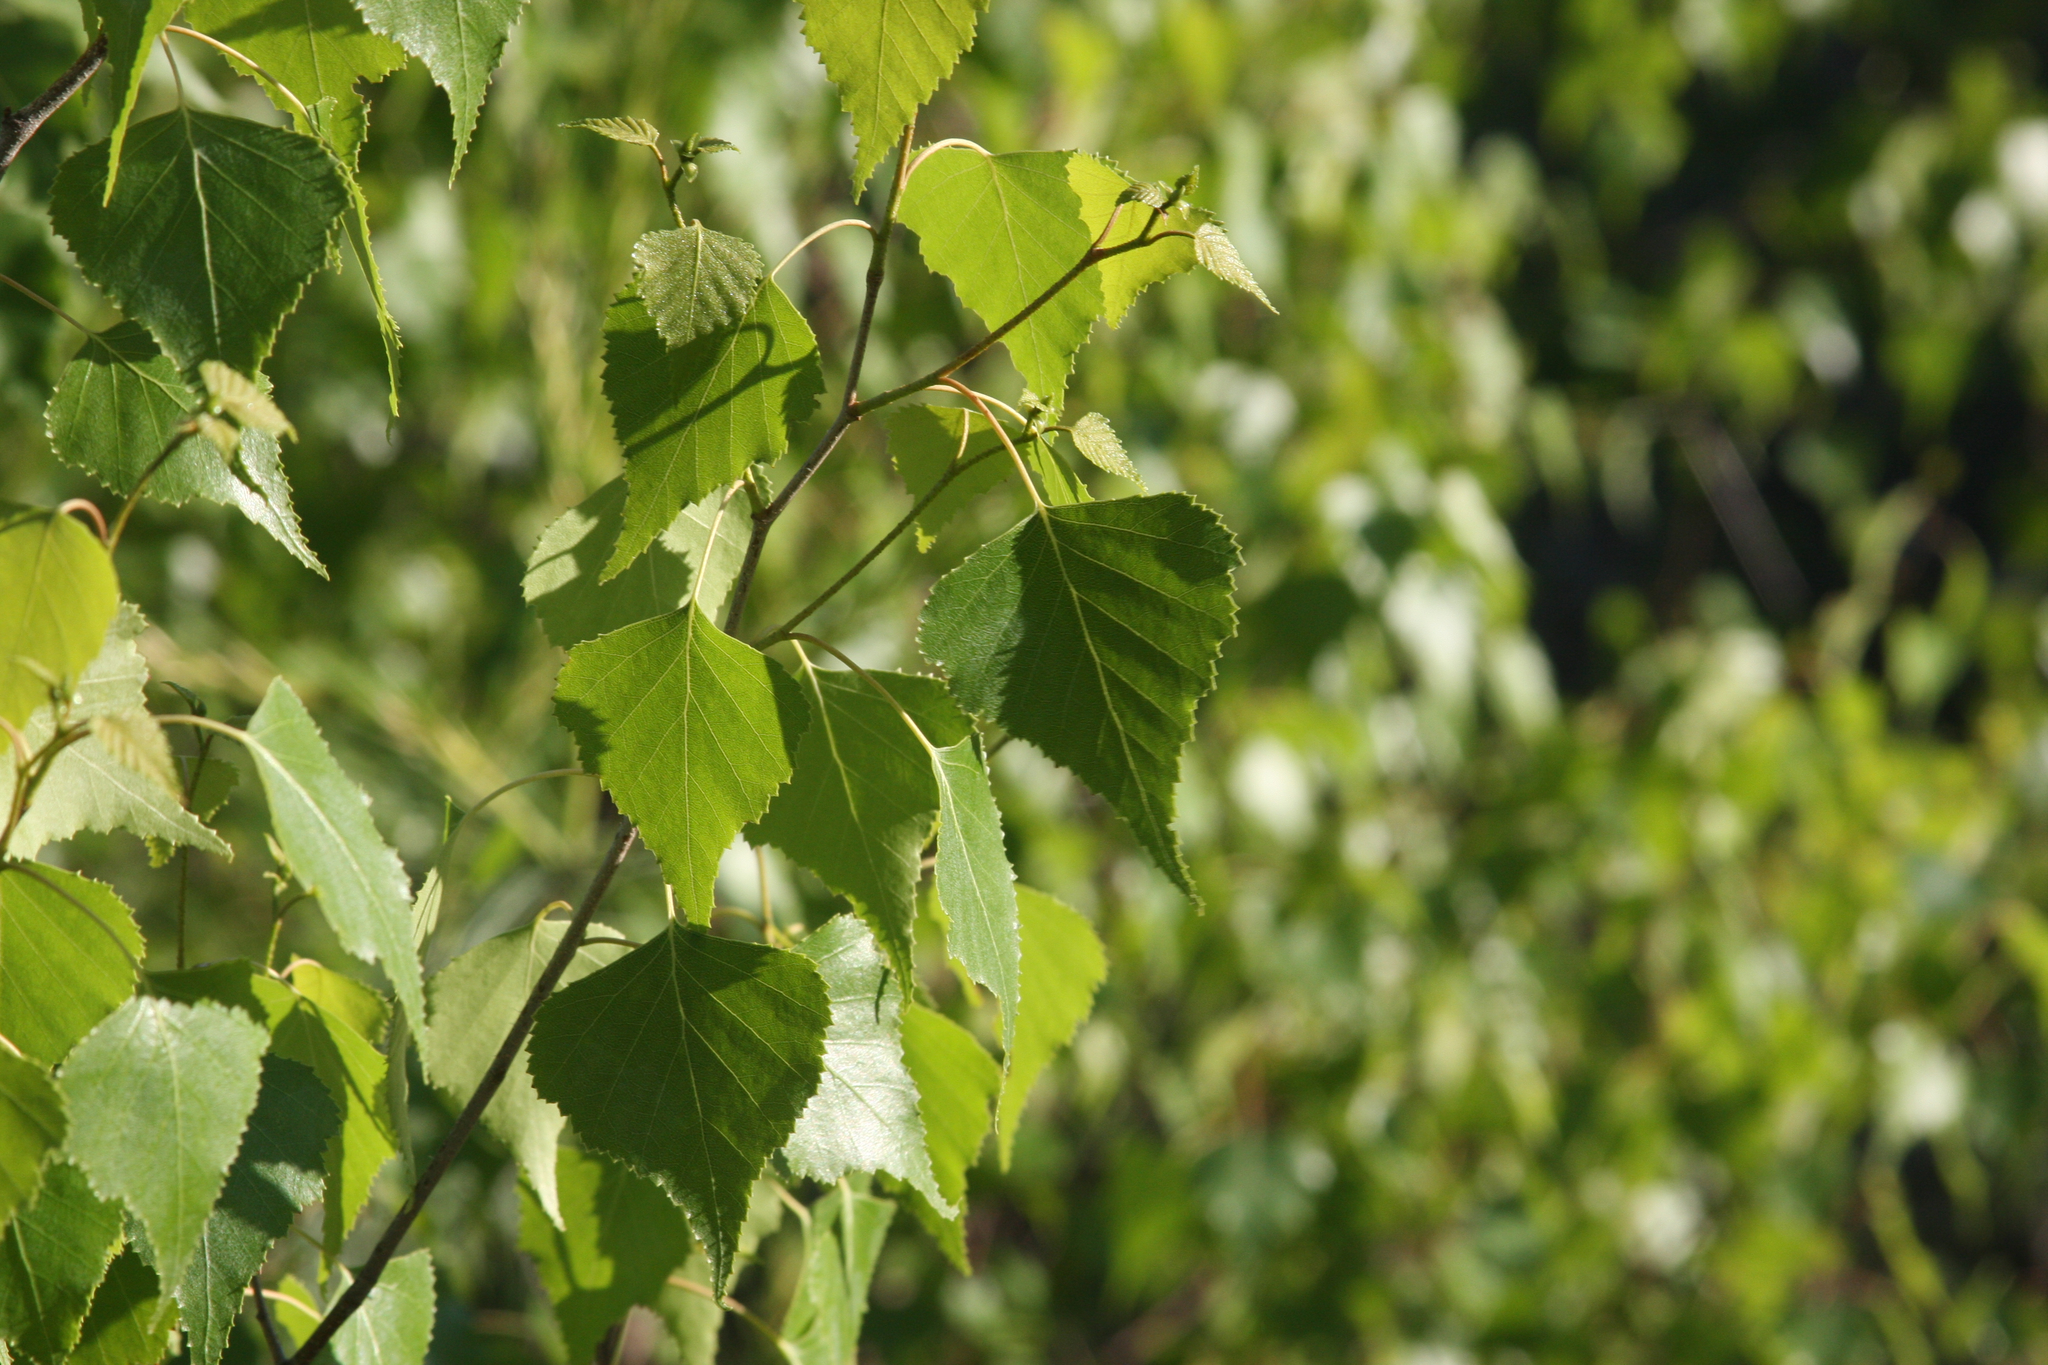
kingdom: Plantae
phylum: Tracheophyta
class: Magnoliopsida
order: Fagales
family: Betulaceae
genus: Betula
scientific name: Betula populifolia
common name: Fire birch
